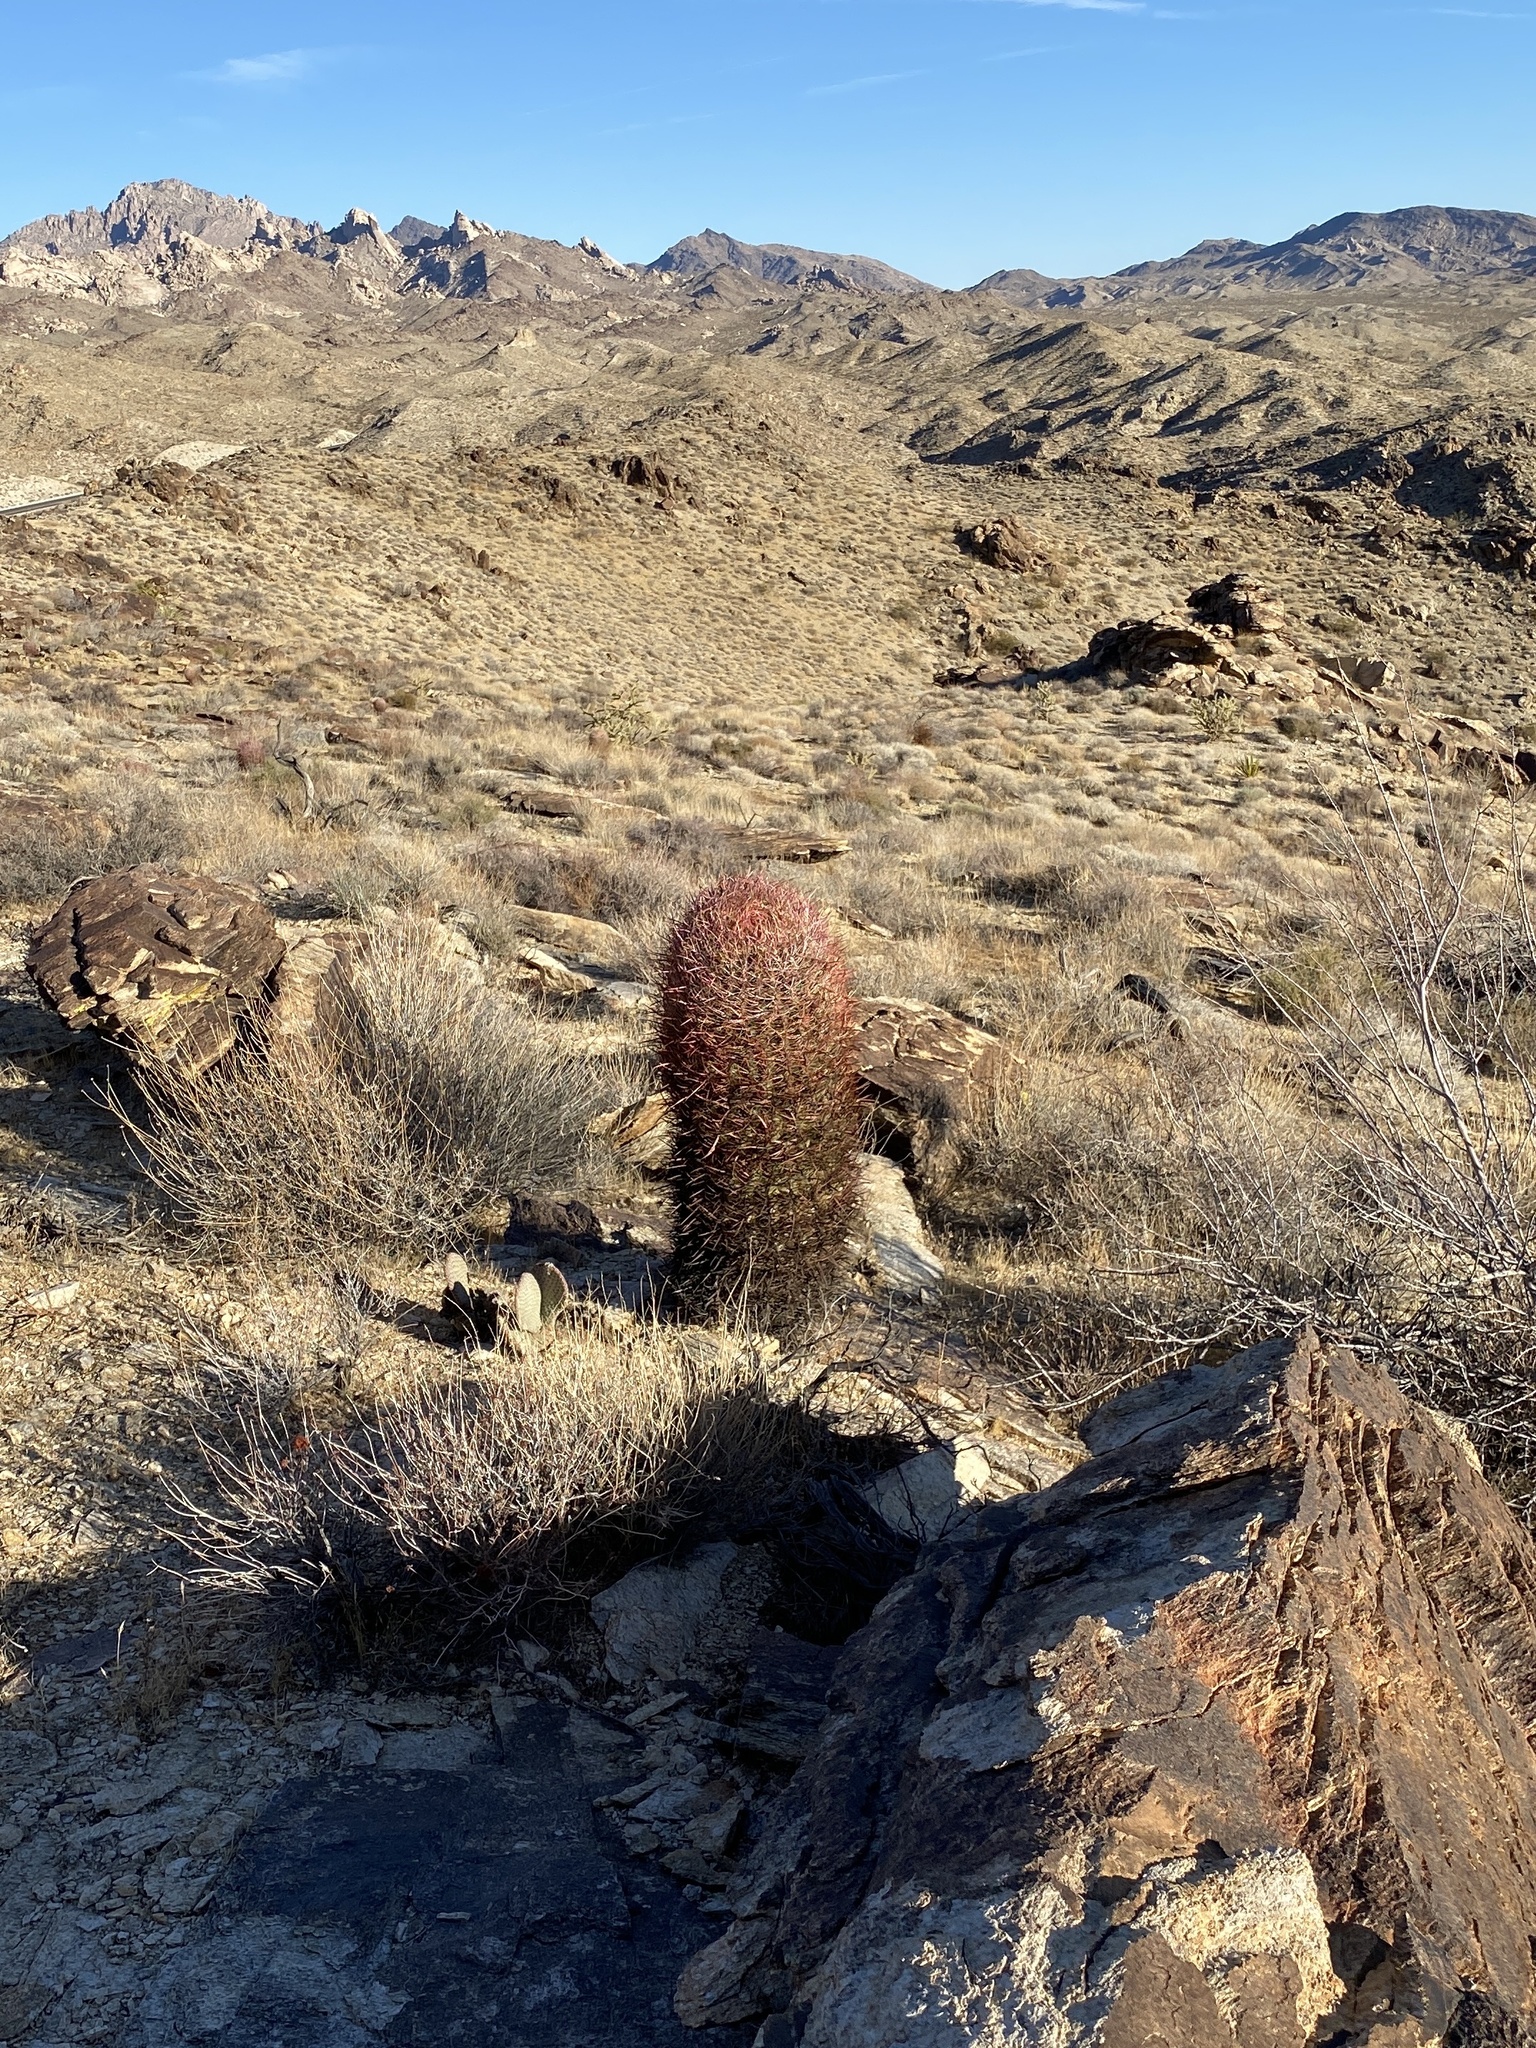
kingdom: Plantae
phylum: Tracheophyta
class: Magnoliopsida
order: Caryophyllales
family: Cactaceae
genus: Ferocactus
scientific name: Ferocactus cylindraceus
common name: California barrel cactus
